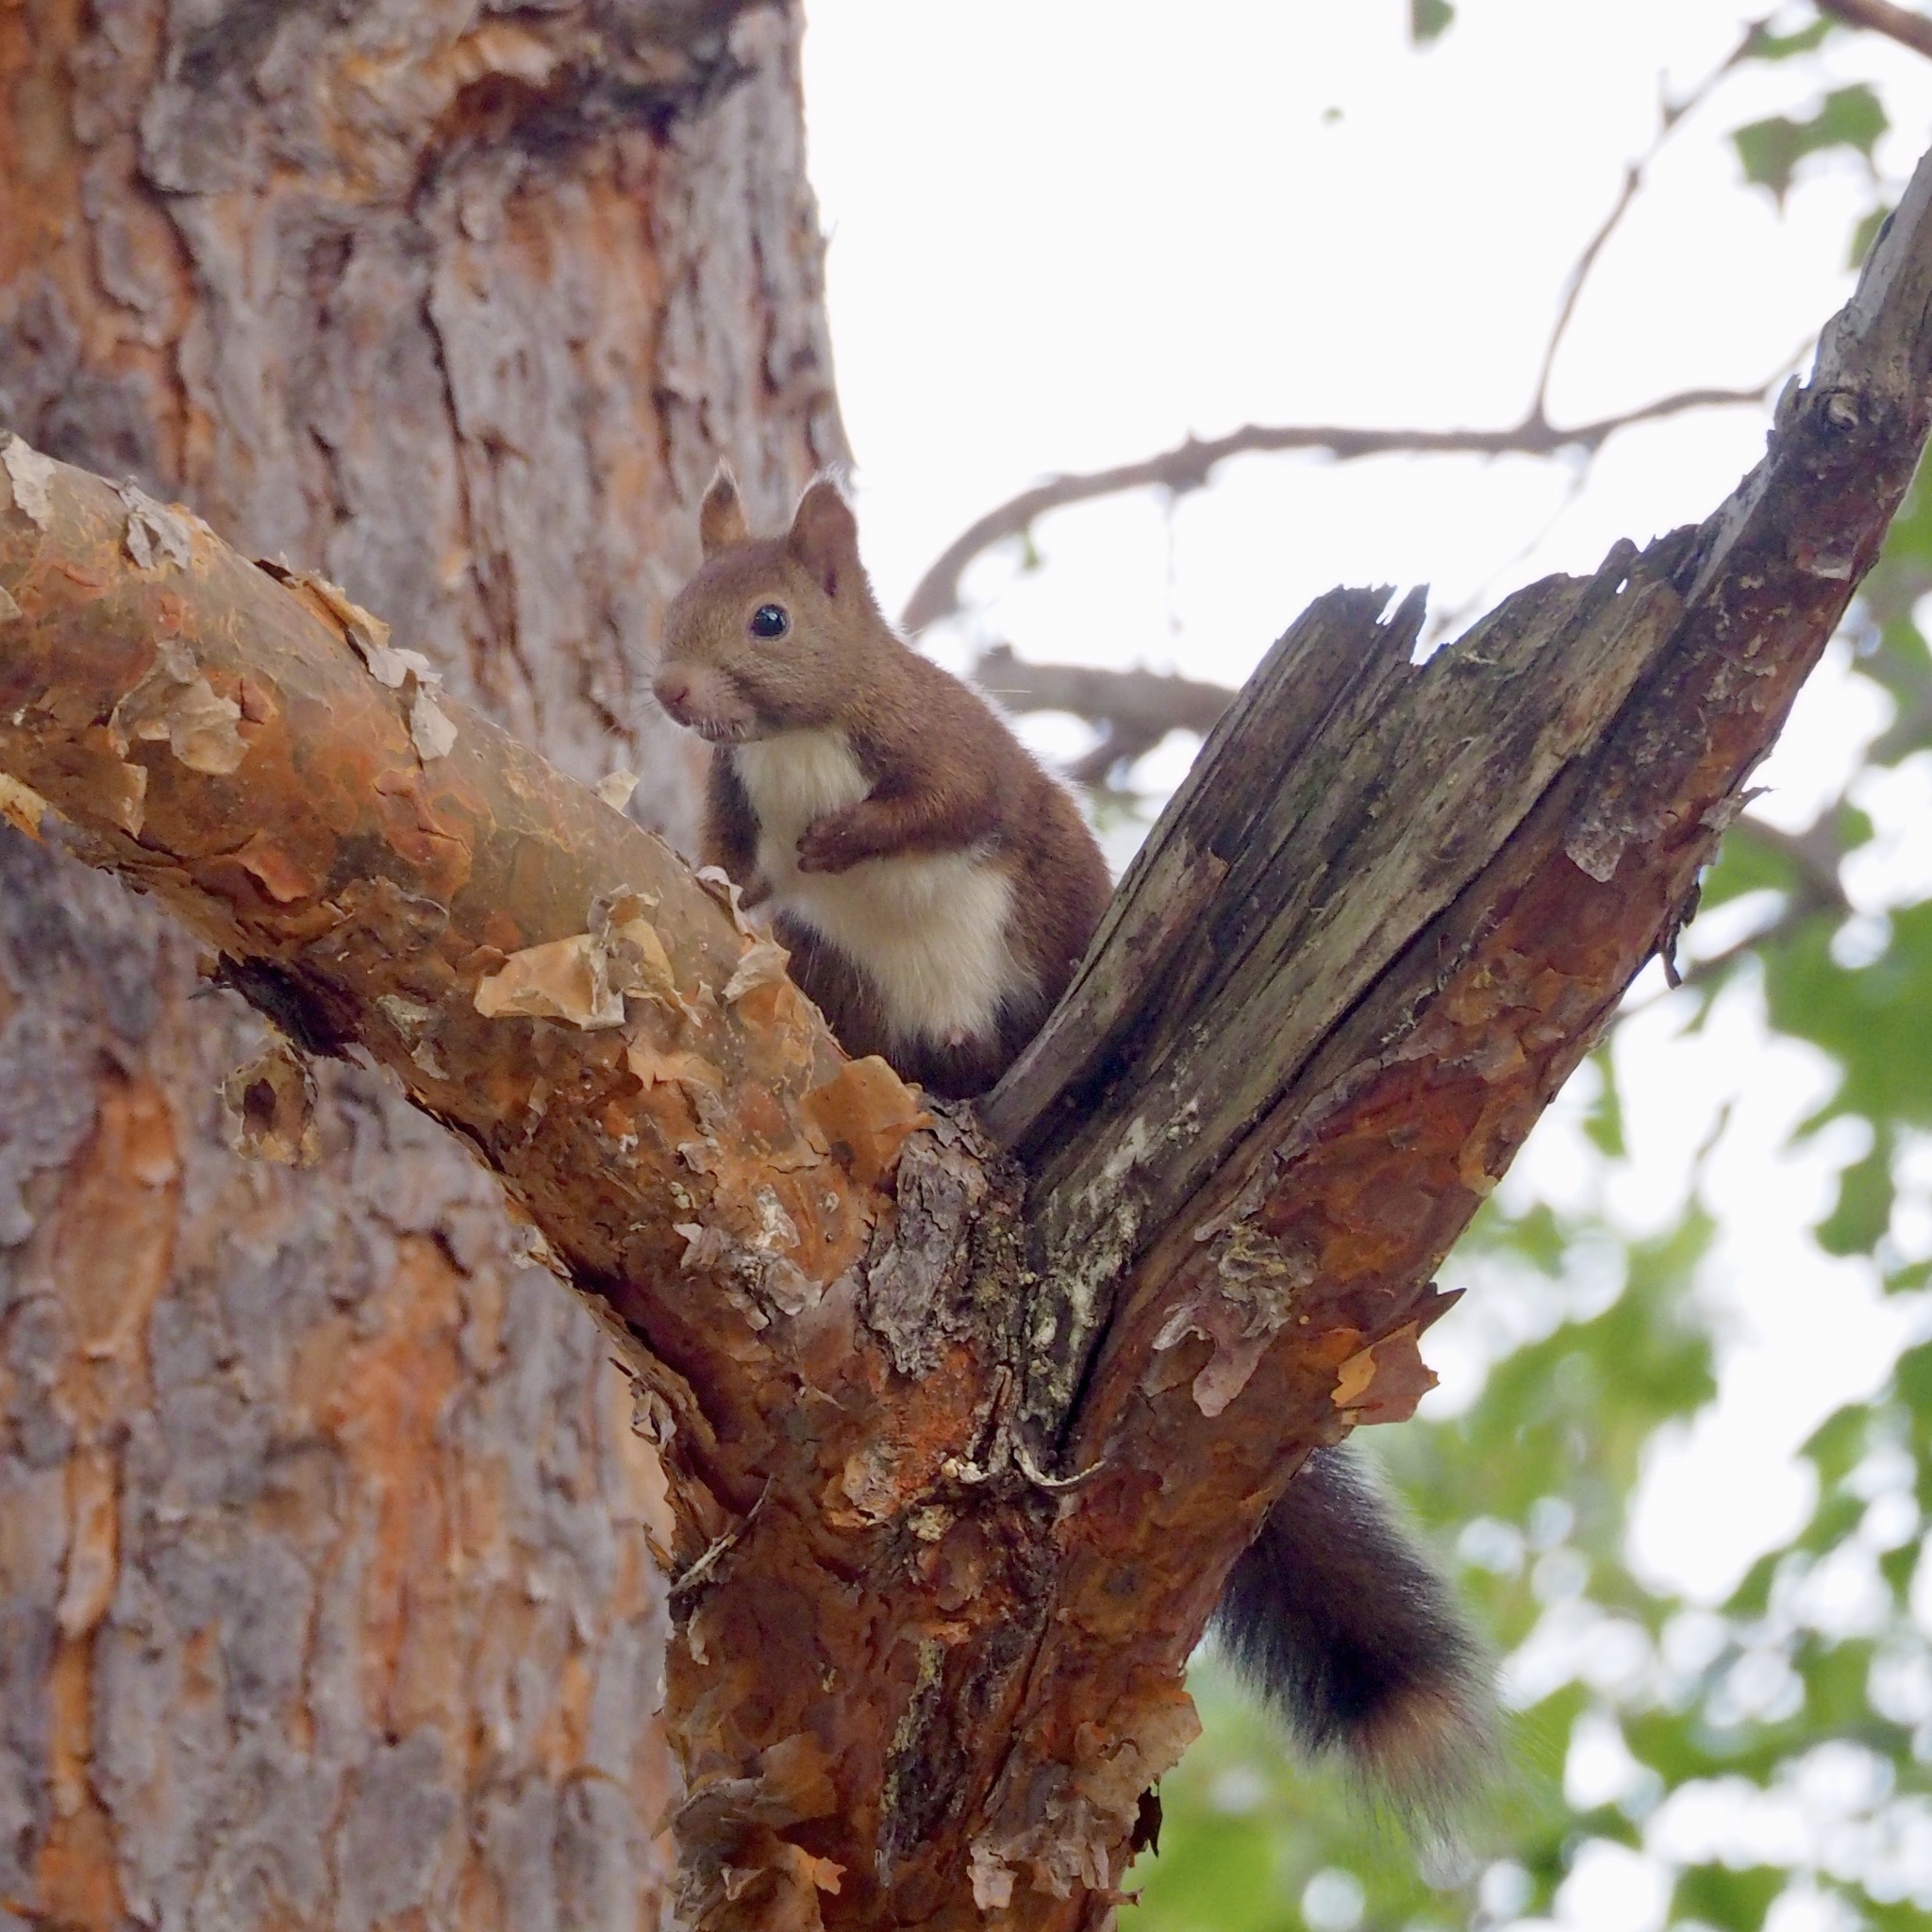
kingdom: Animalia
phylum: Chordata
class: Mammalia
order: Rodentia
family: Sciuridae
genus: Sciurus
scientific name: Sciurus vulgaris
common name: Eurasian red squirrel
